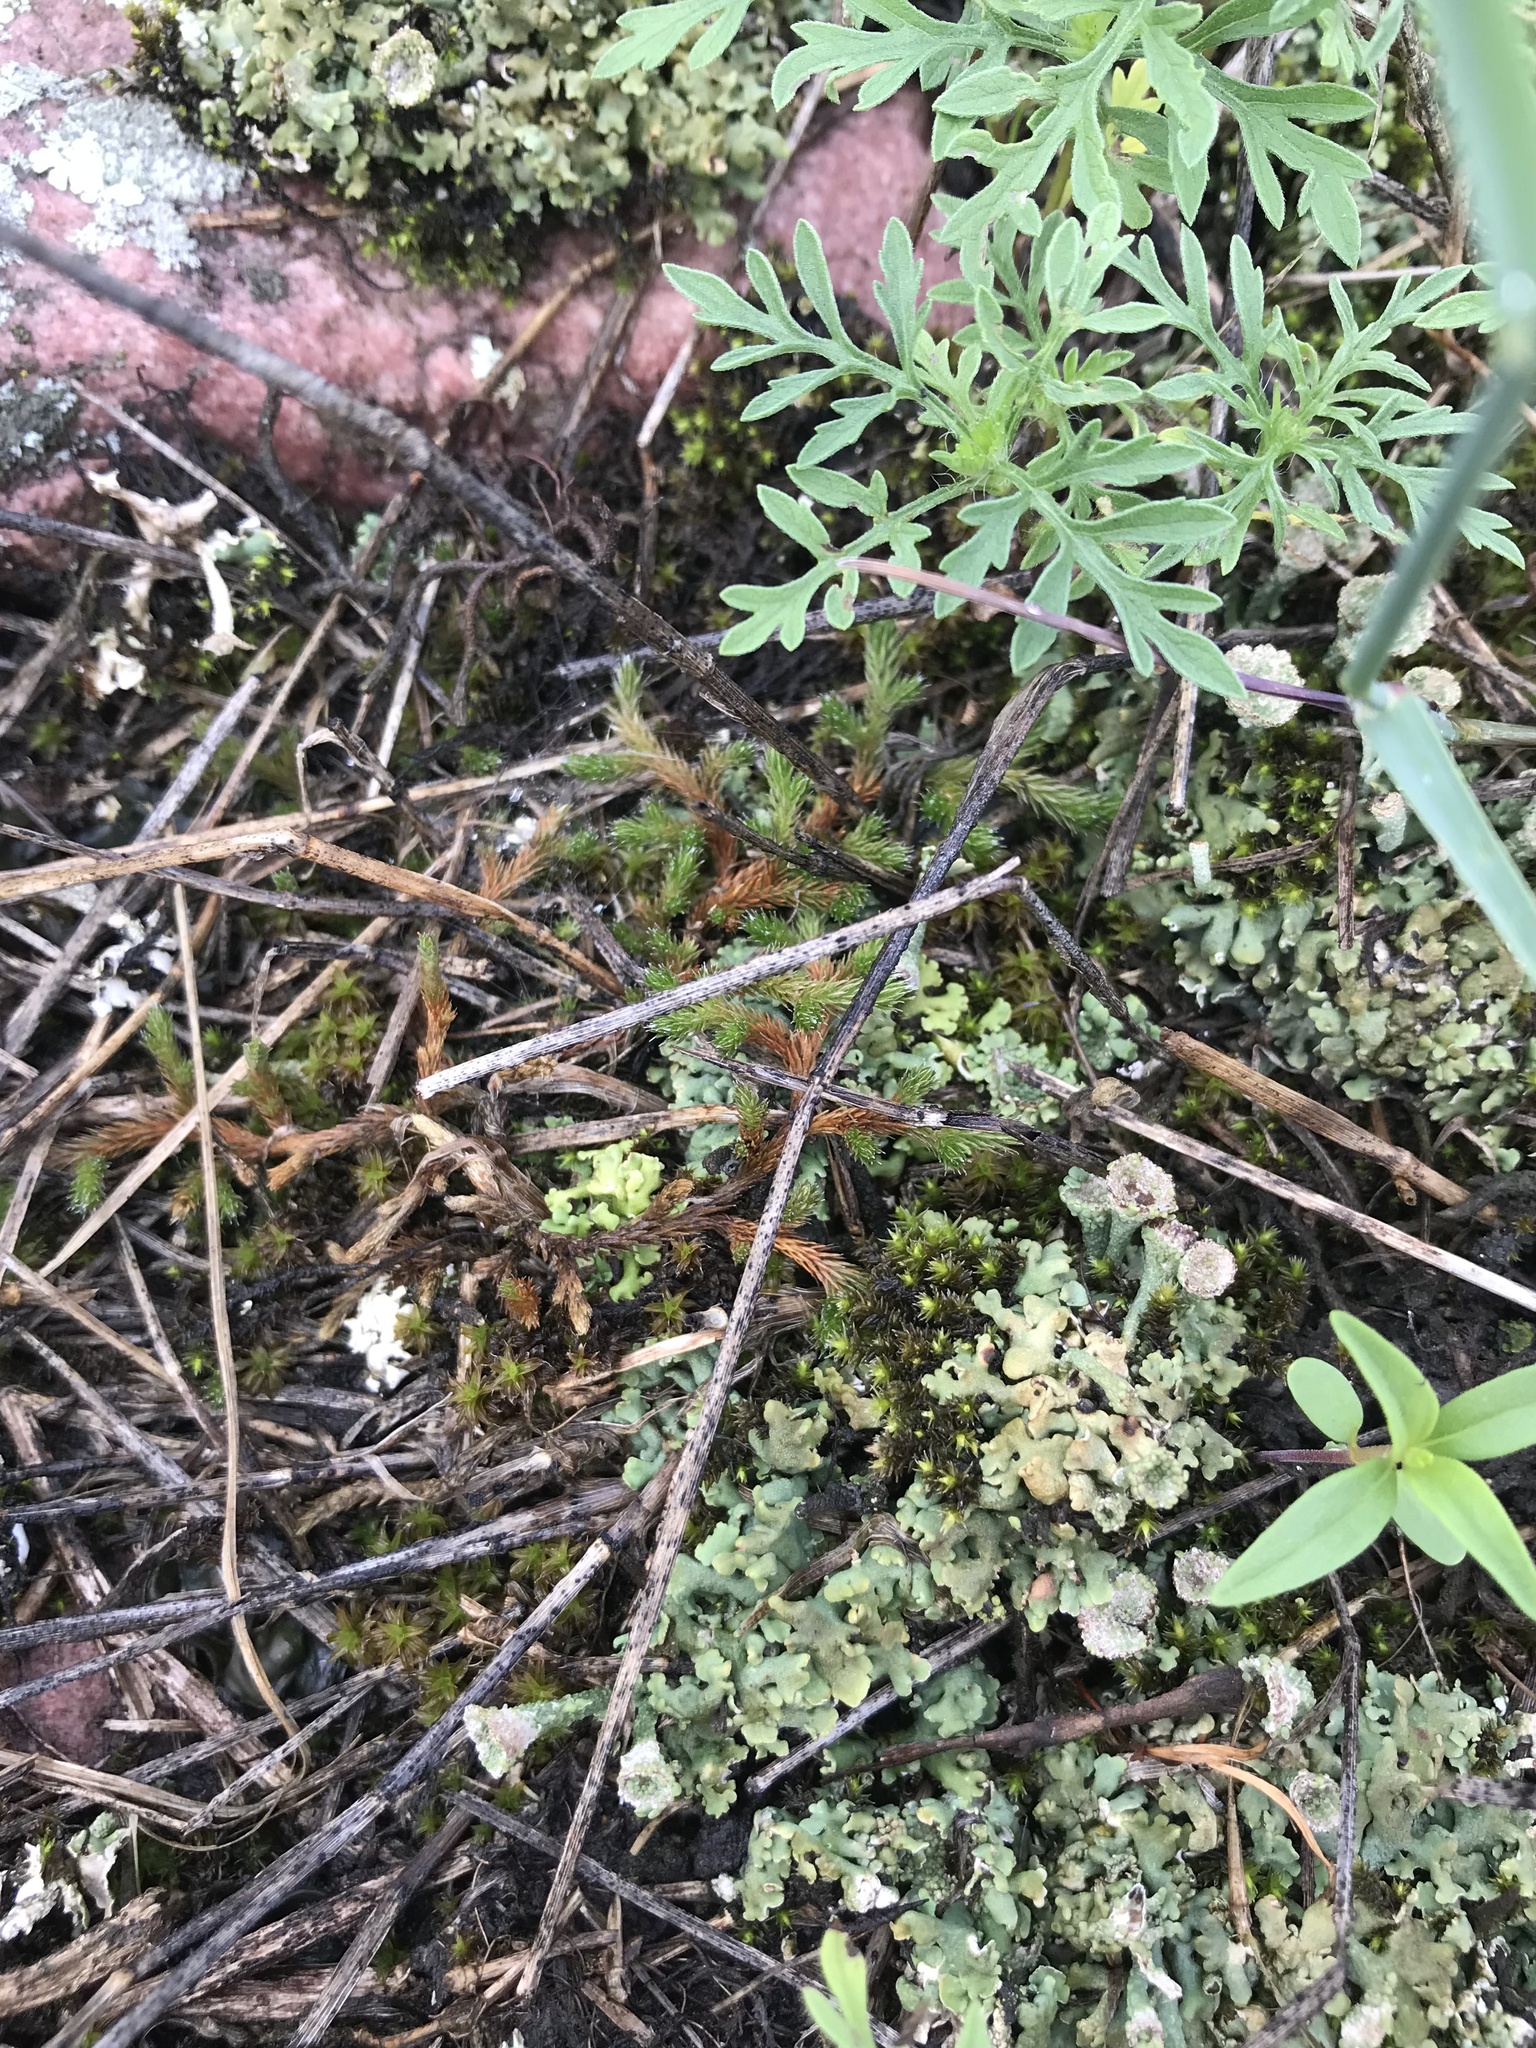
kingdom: Plantae
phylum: Tracheophyta
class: Lycopodiopsida
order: Selaginellales
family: Selaginellaceae
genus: Selaginella
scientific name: Selaginella rupestris
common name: Dwarf spikemoss
